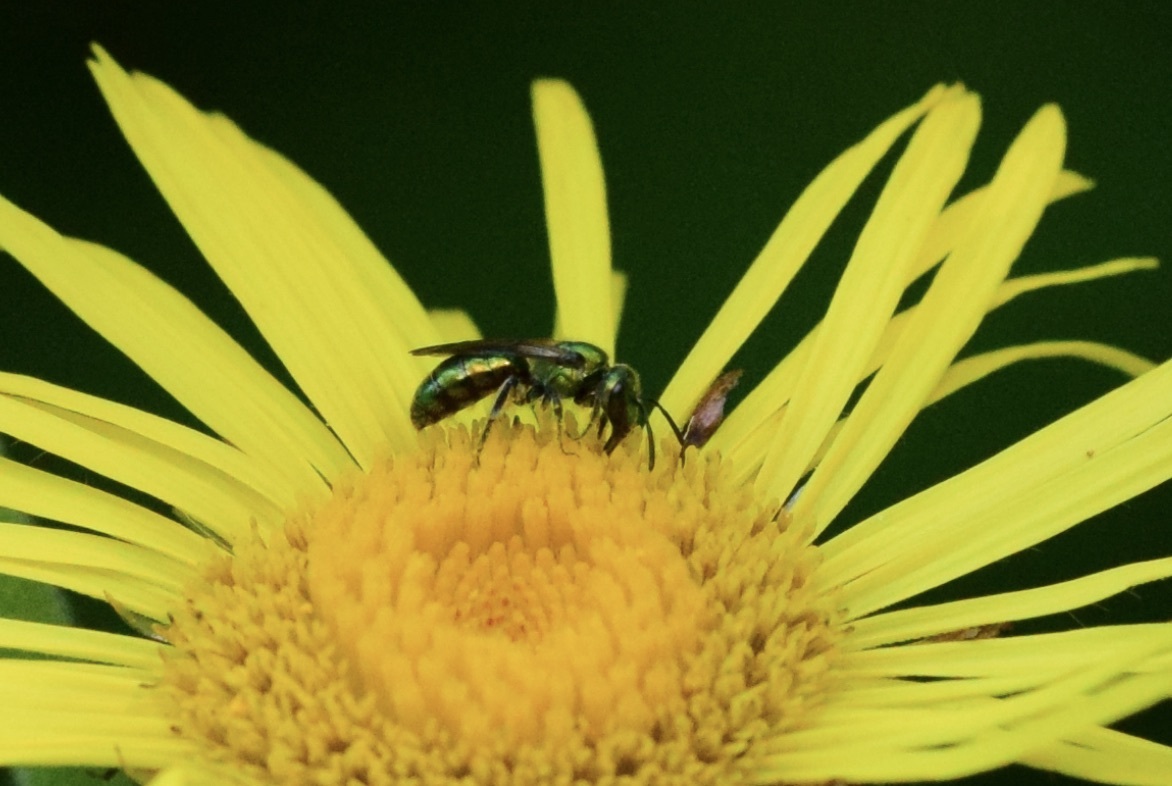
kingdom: Animalia
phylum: Arthropoda
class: Insecta
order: Hymenoptera
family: Halictidae
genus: Augochlora
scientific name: Augochlora pura
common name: Pure green sweat bee
